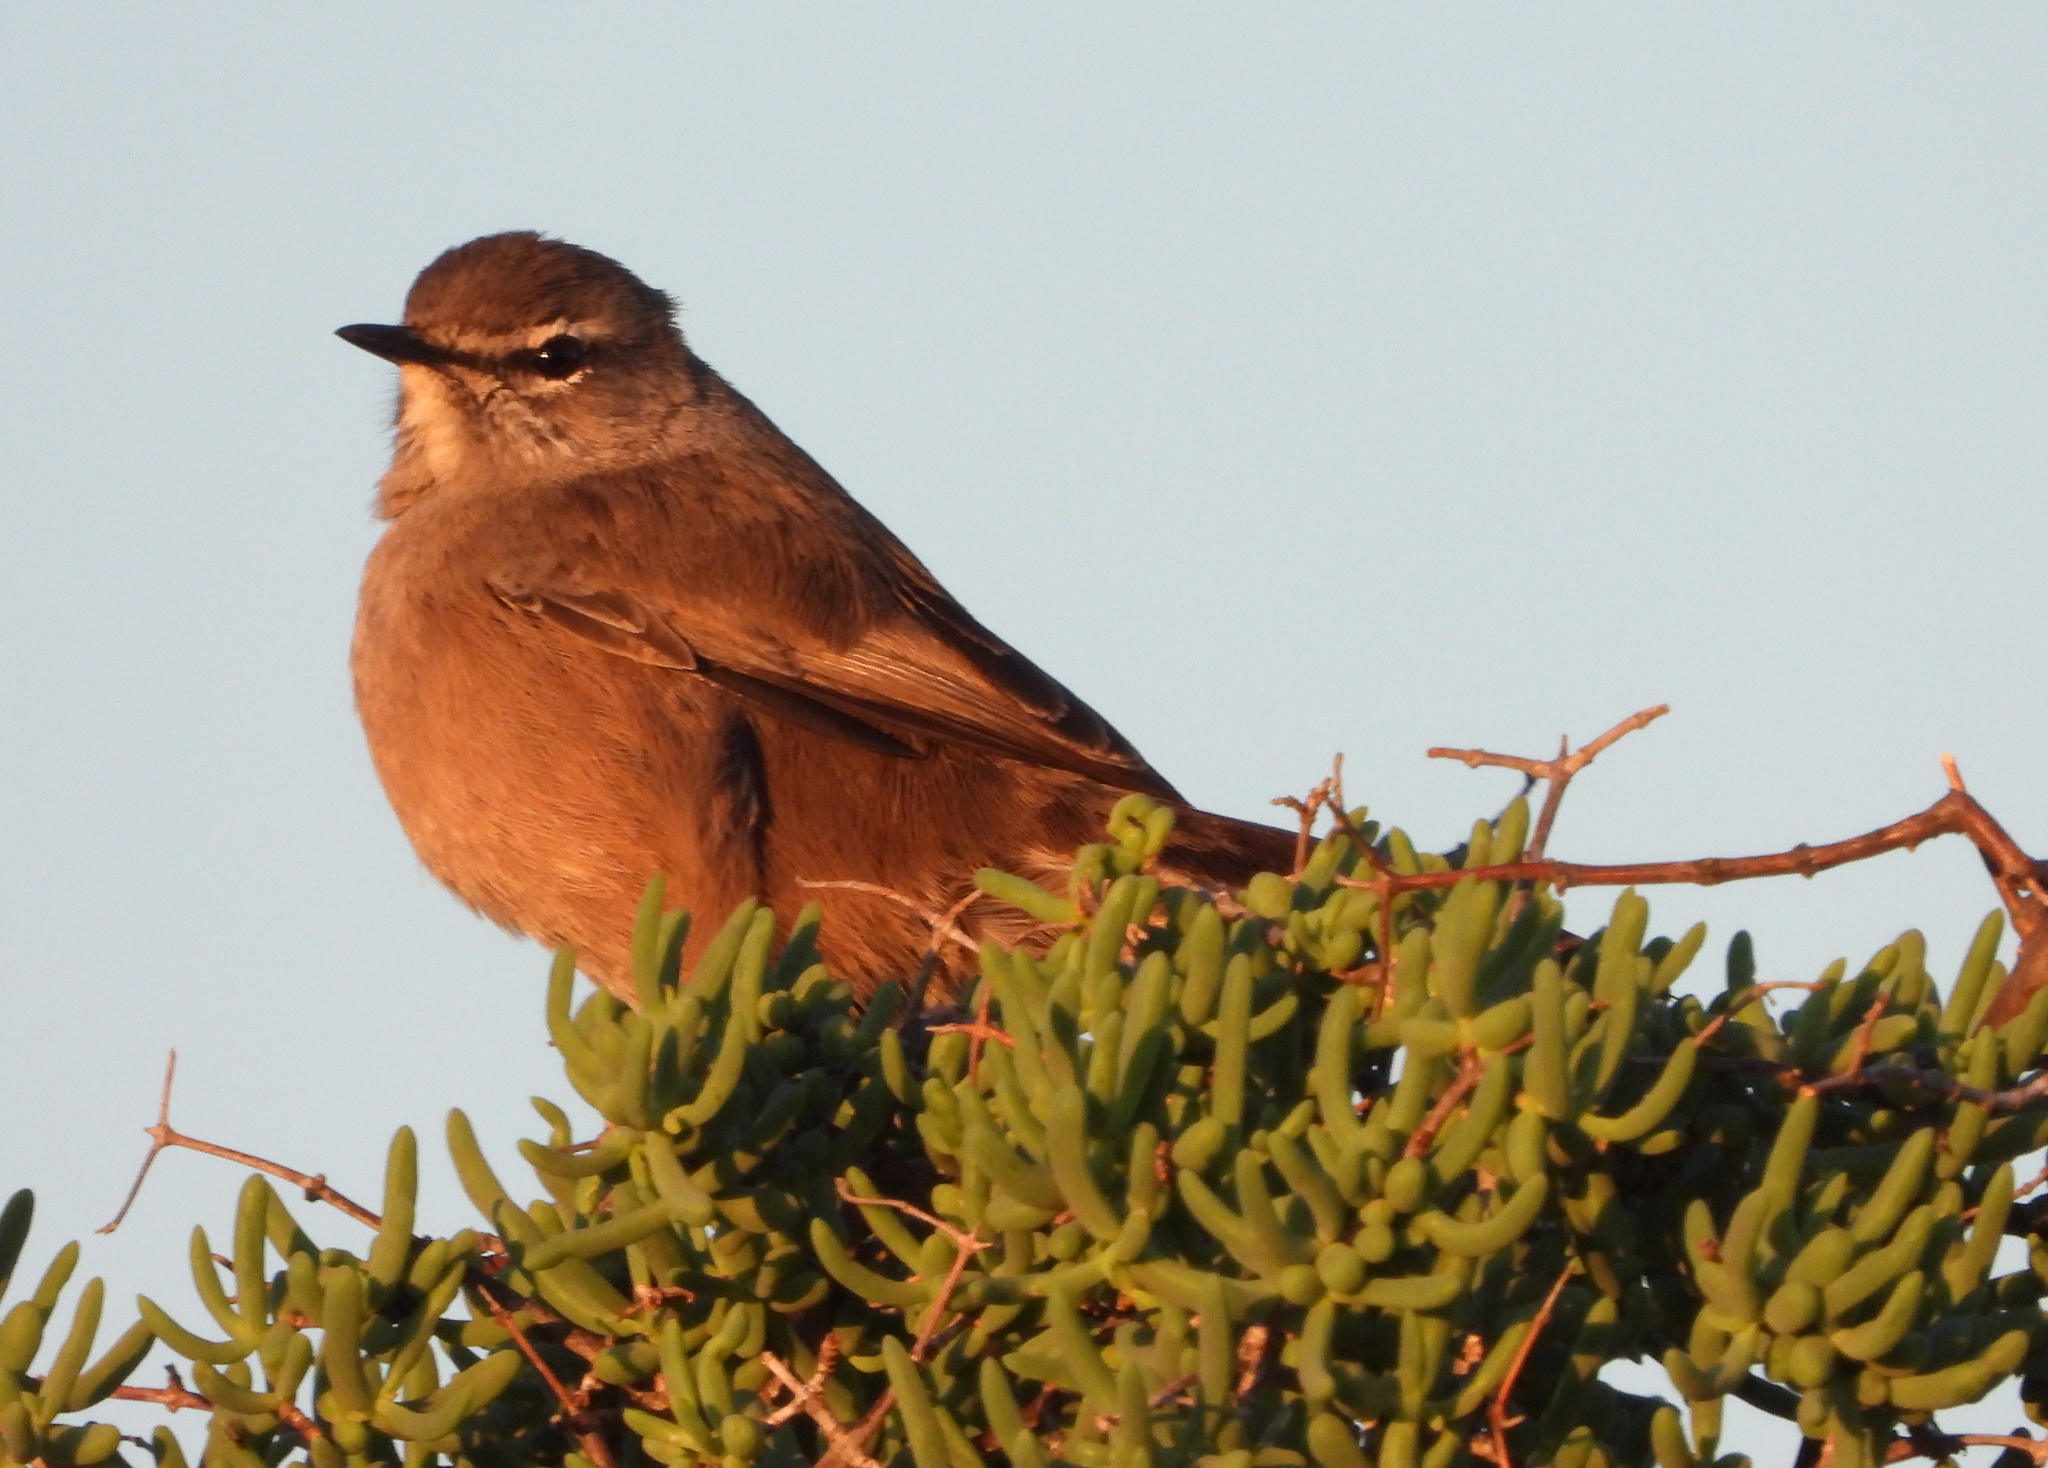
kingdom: Animalia
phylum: Chordata
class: Aves
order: Passeriformes
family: Muscicapidae
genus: Erythropygia
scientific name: Erythropygia coryphoeus
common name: Karoo scrub robin
